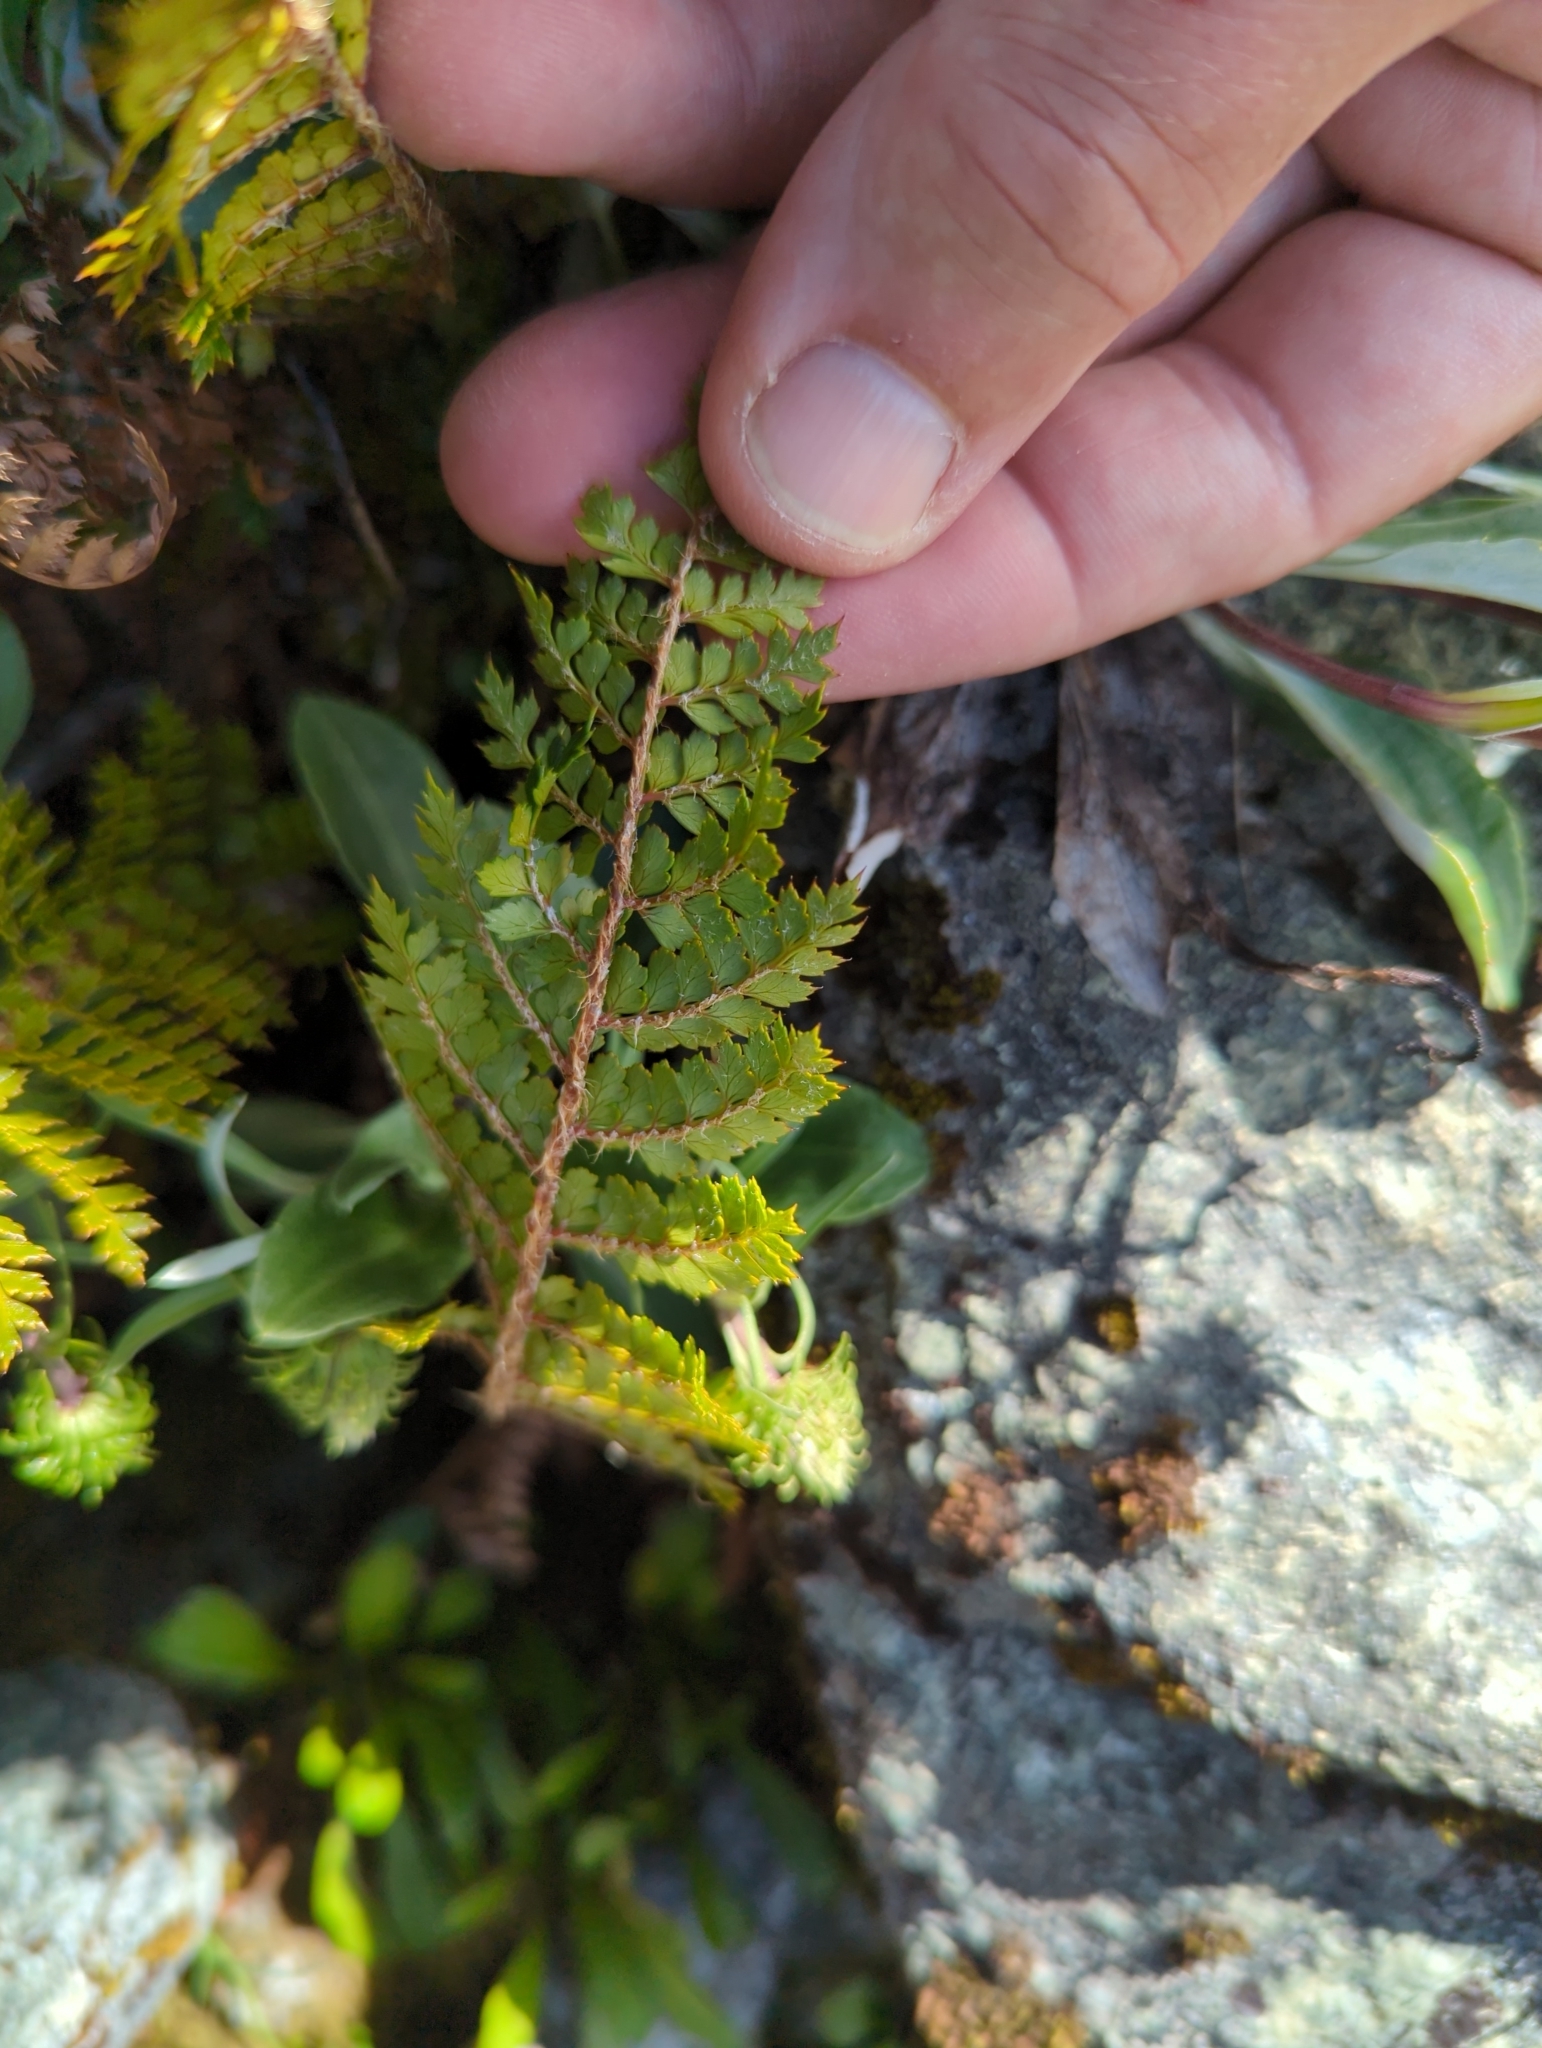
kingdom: Plantae
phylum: Tracheophyta
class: Polypodiopsida
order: Polypodiales
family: Dryopteridaceae
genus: Polystichum
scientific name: Polystichum vestitum
